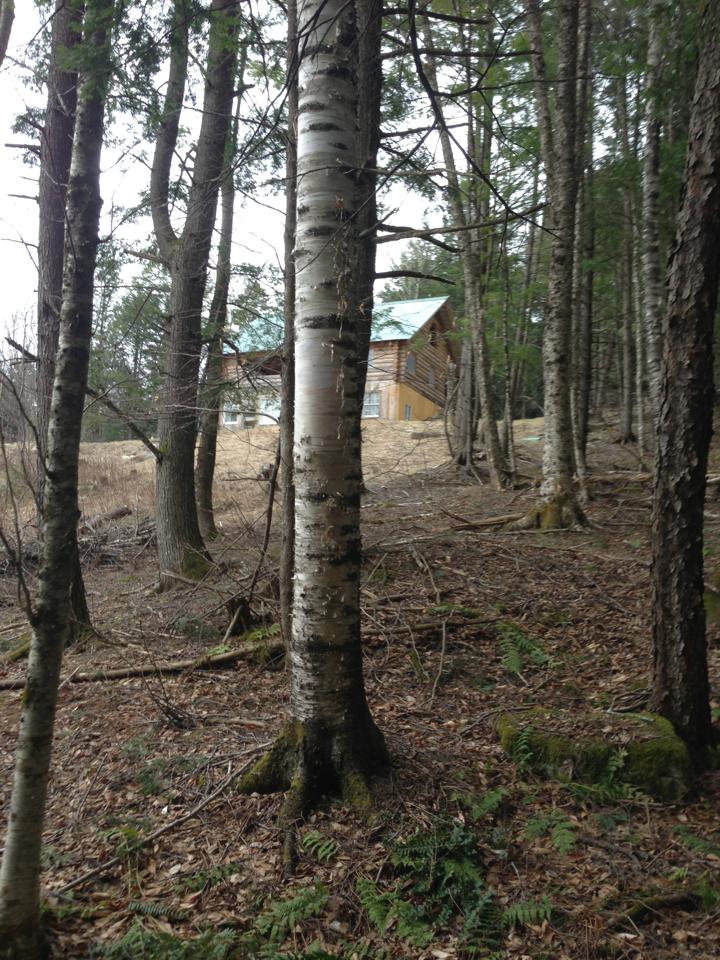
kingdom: Plantae
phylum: Tracheophyta
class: Magnoliopsida
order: Fagales
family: Betulaceae
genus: Betula
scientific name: Betula papyrifera
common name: Paper birch
